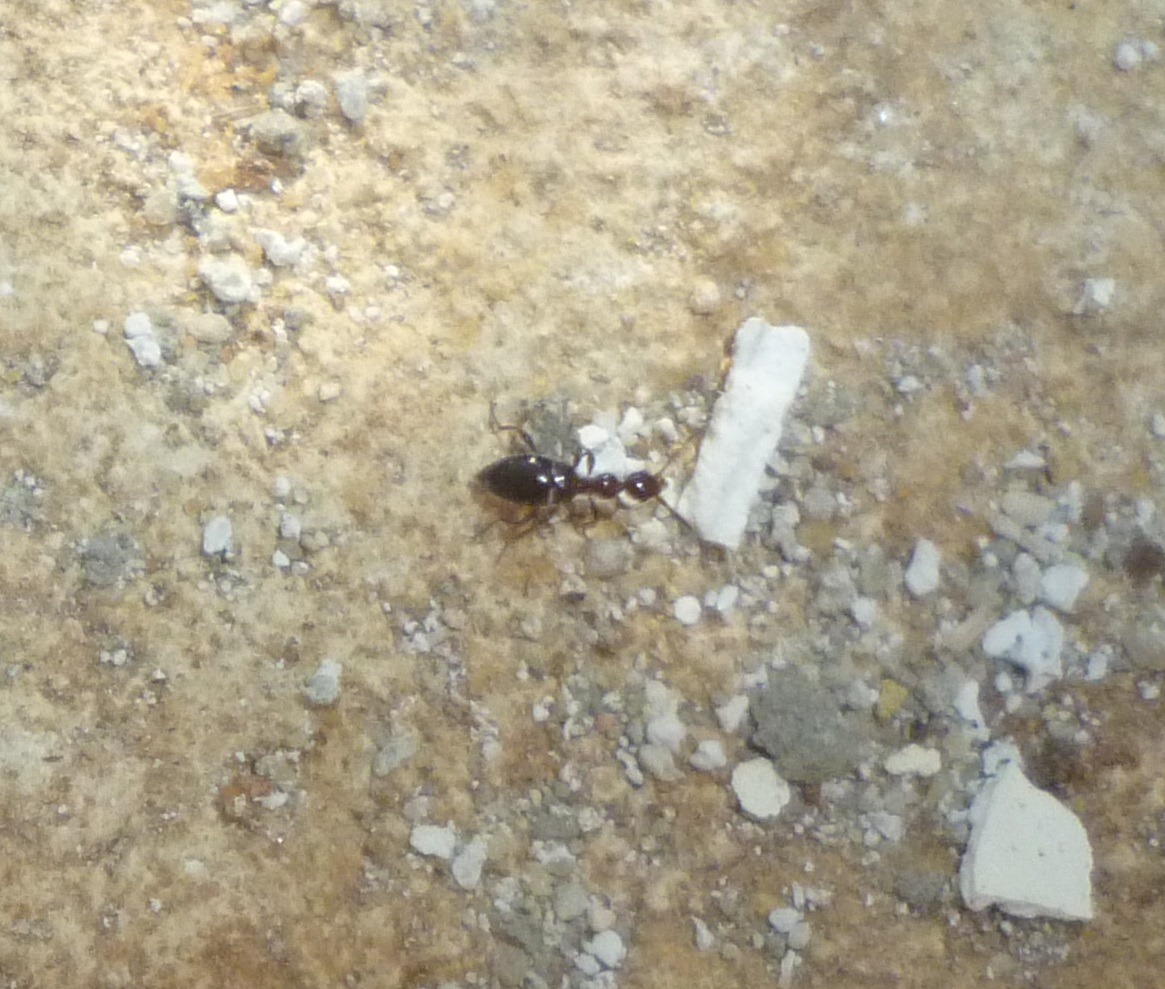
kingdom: Animalia
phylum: Arthropoda
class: Insecta
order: Coleoptera
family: Anthicidae
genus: Anthelephila
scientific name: Anthelephila ionica
